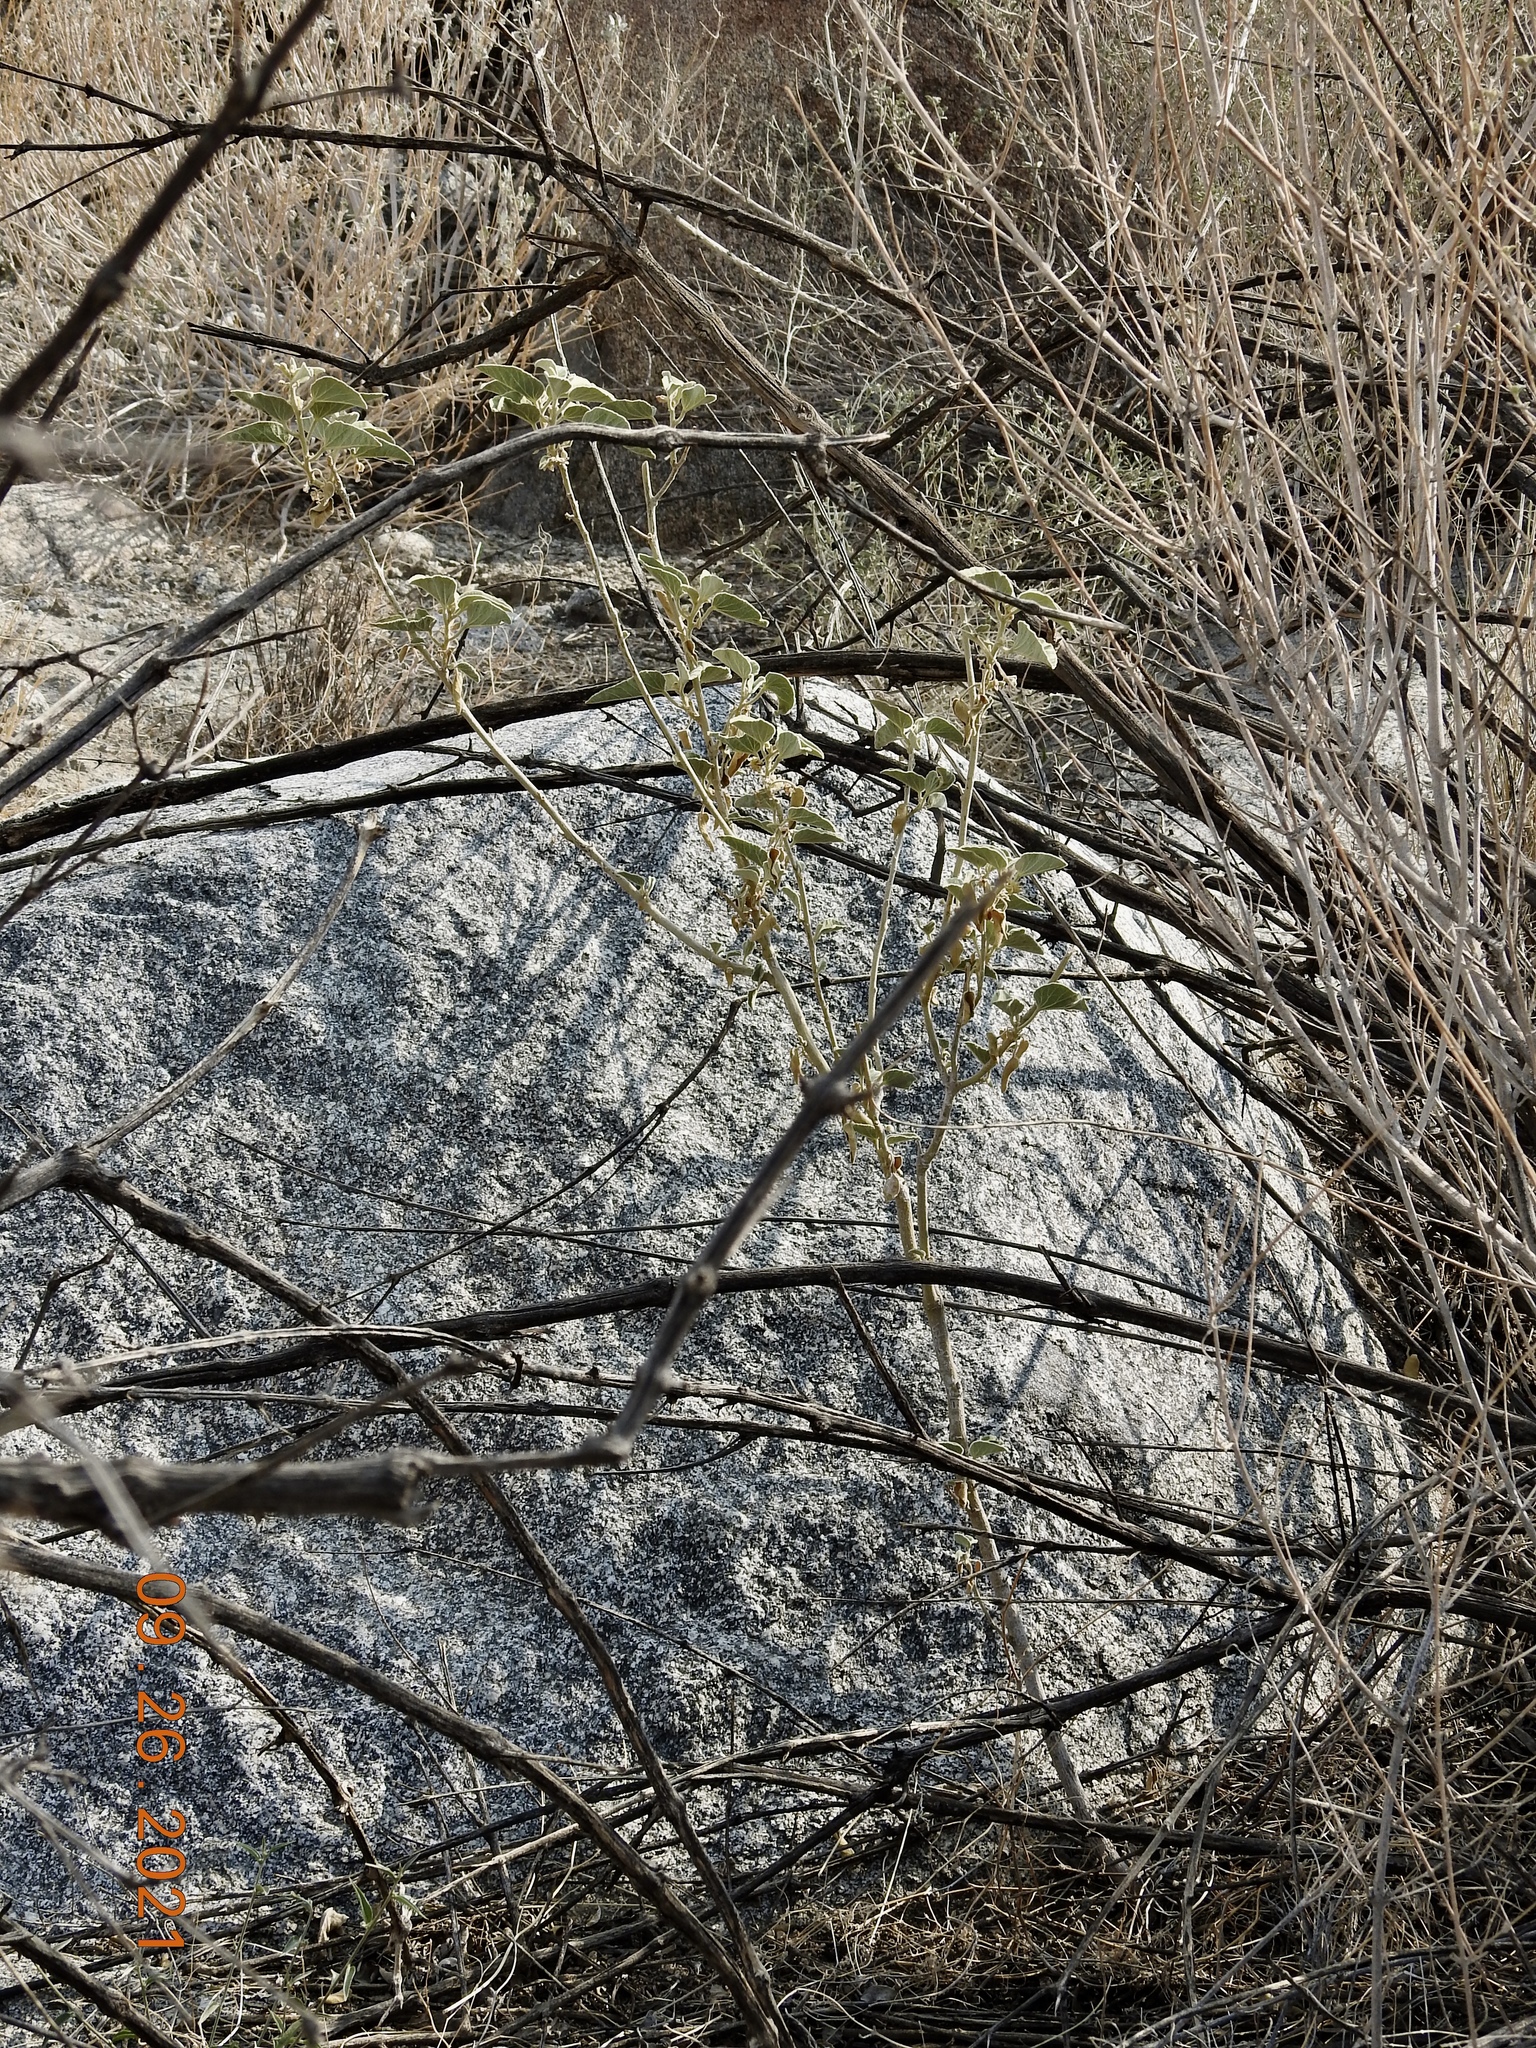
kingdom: Plantae
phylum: Tracheophyta
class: Magnoliopsida
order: Malvales
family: Malvaceae
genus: Horsfordia
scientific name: Horsfordia newberryi
